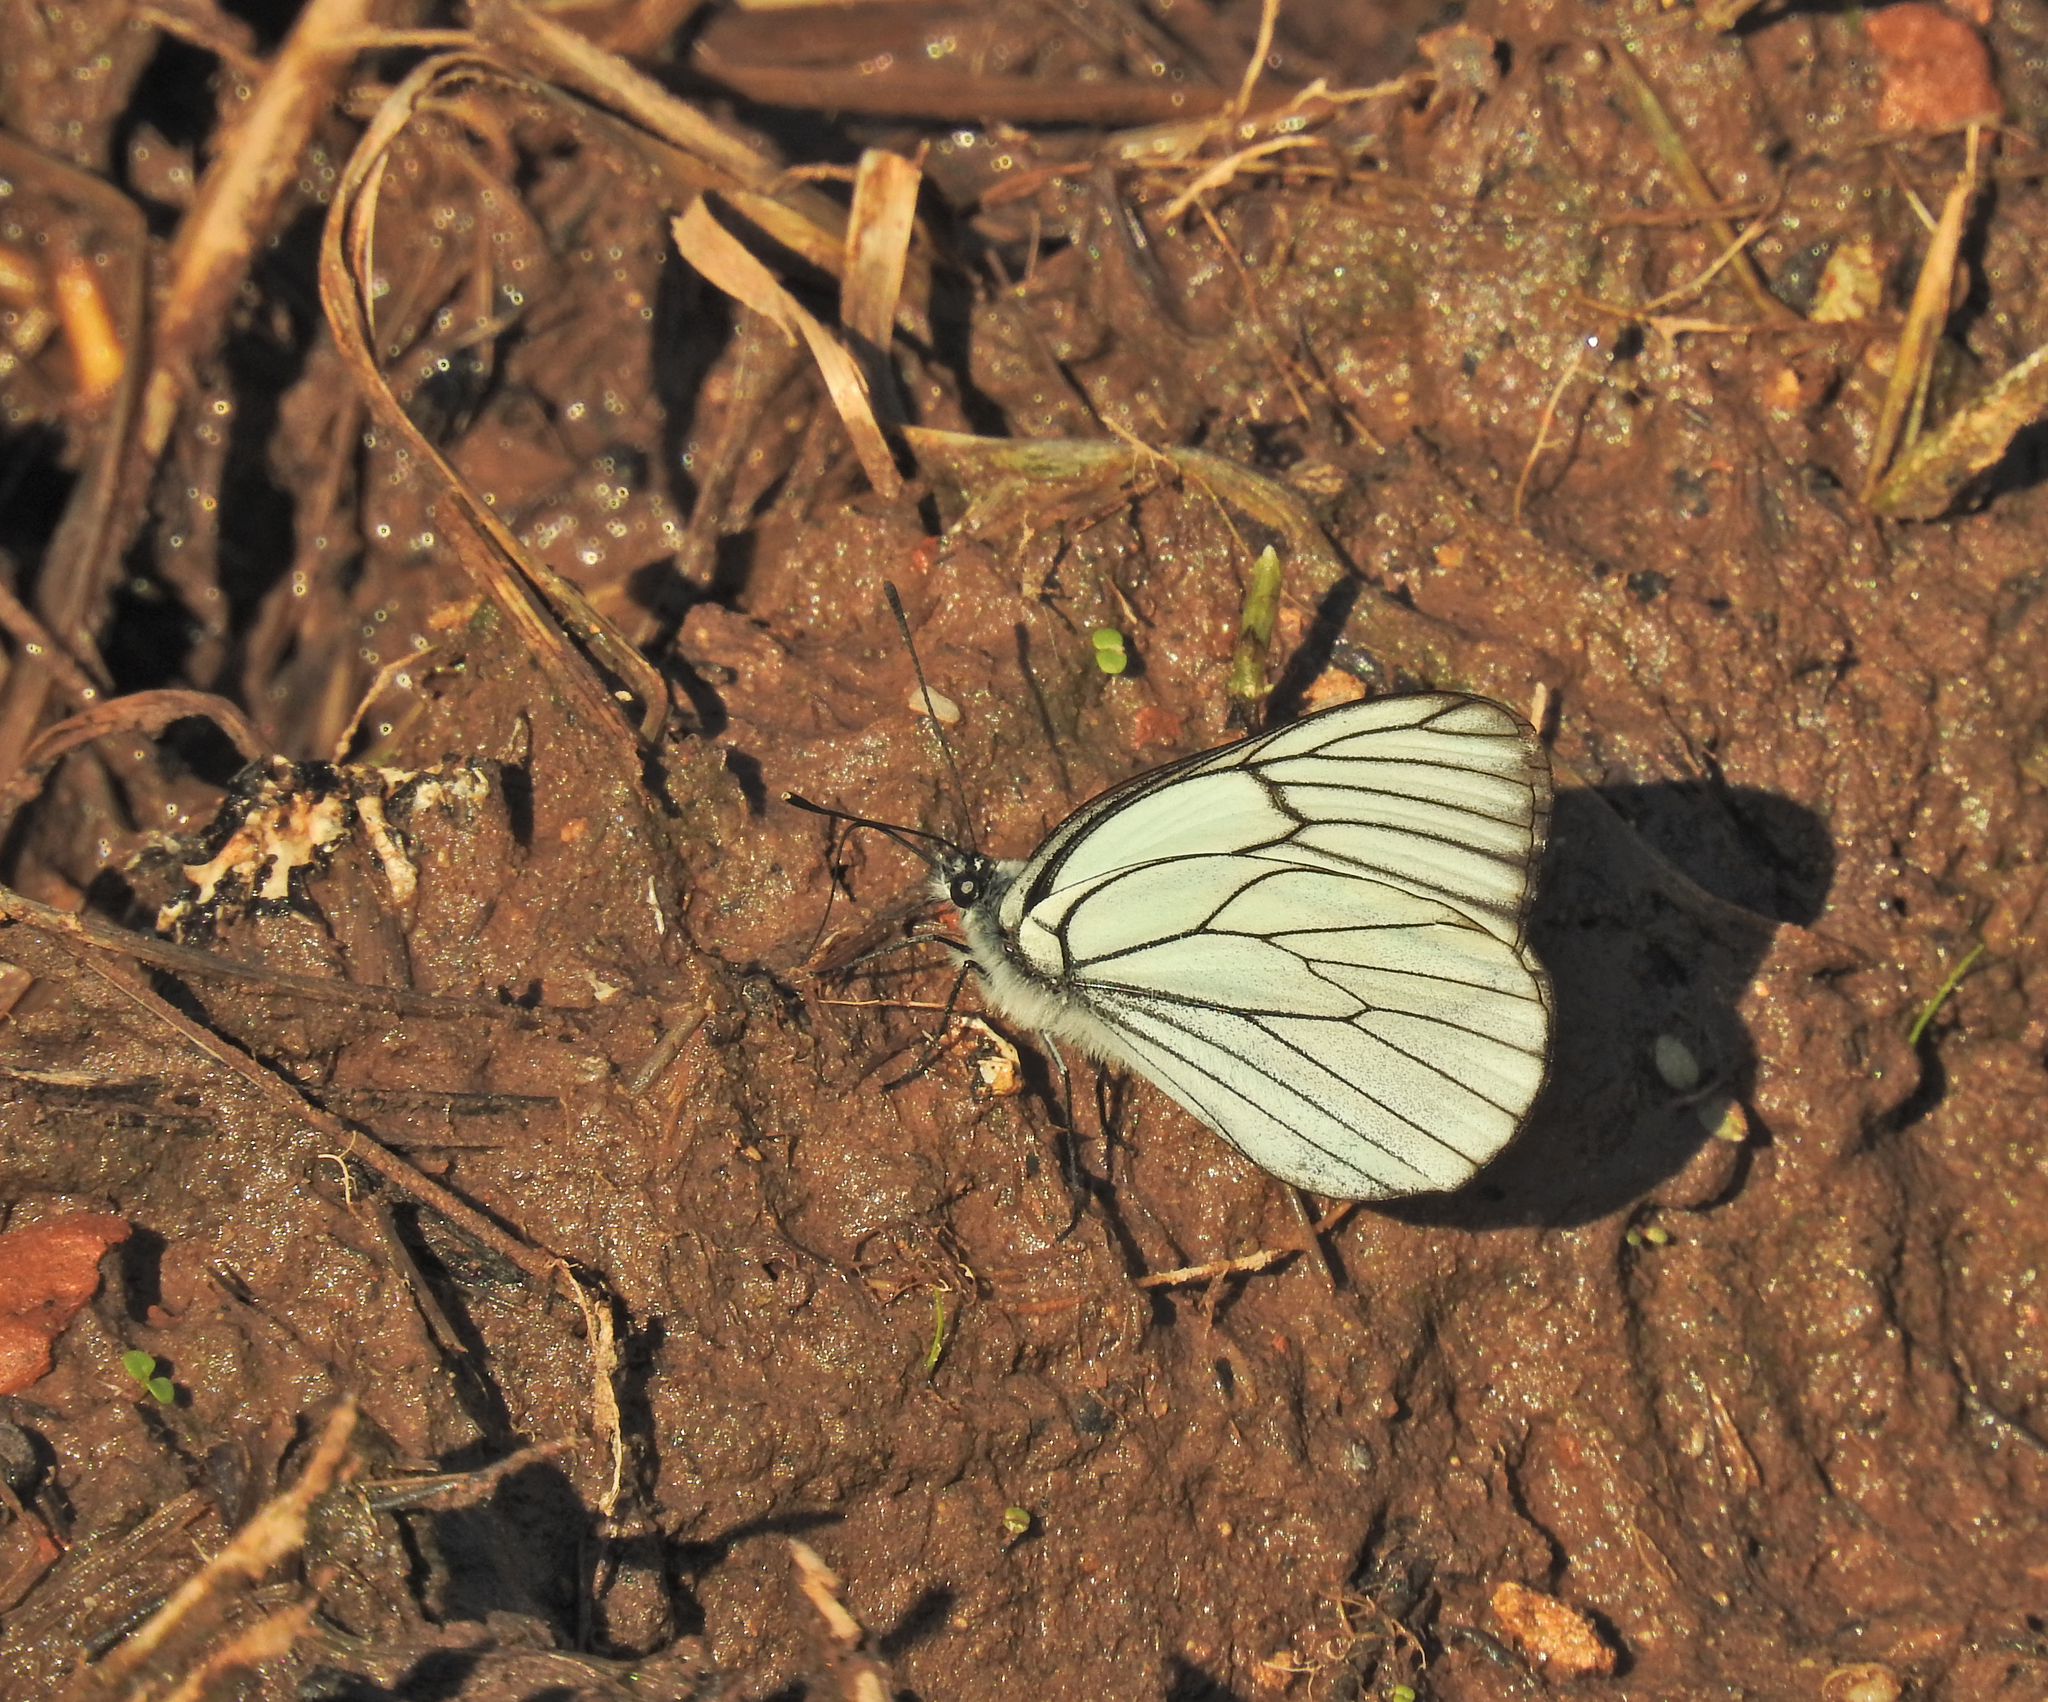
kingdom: Animalia
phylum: Arthropoda
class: Insecta
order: Lepidoptera
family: Pieridae
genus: Aporia
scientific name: Aporia crataegi
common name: Black-veined white
